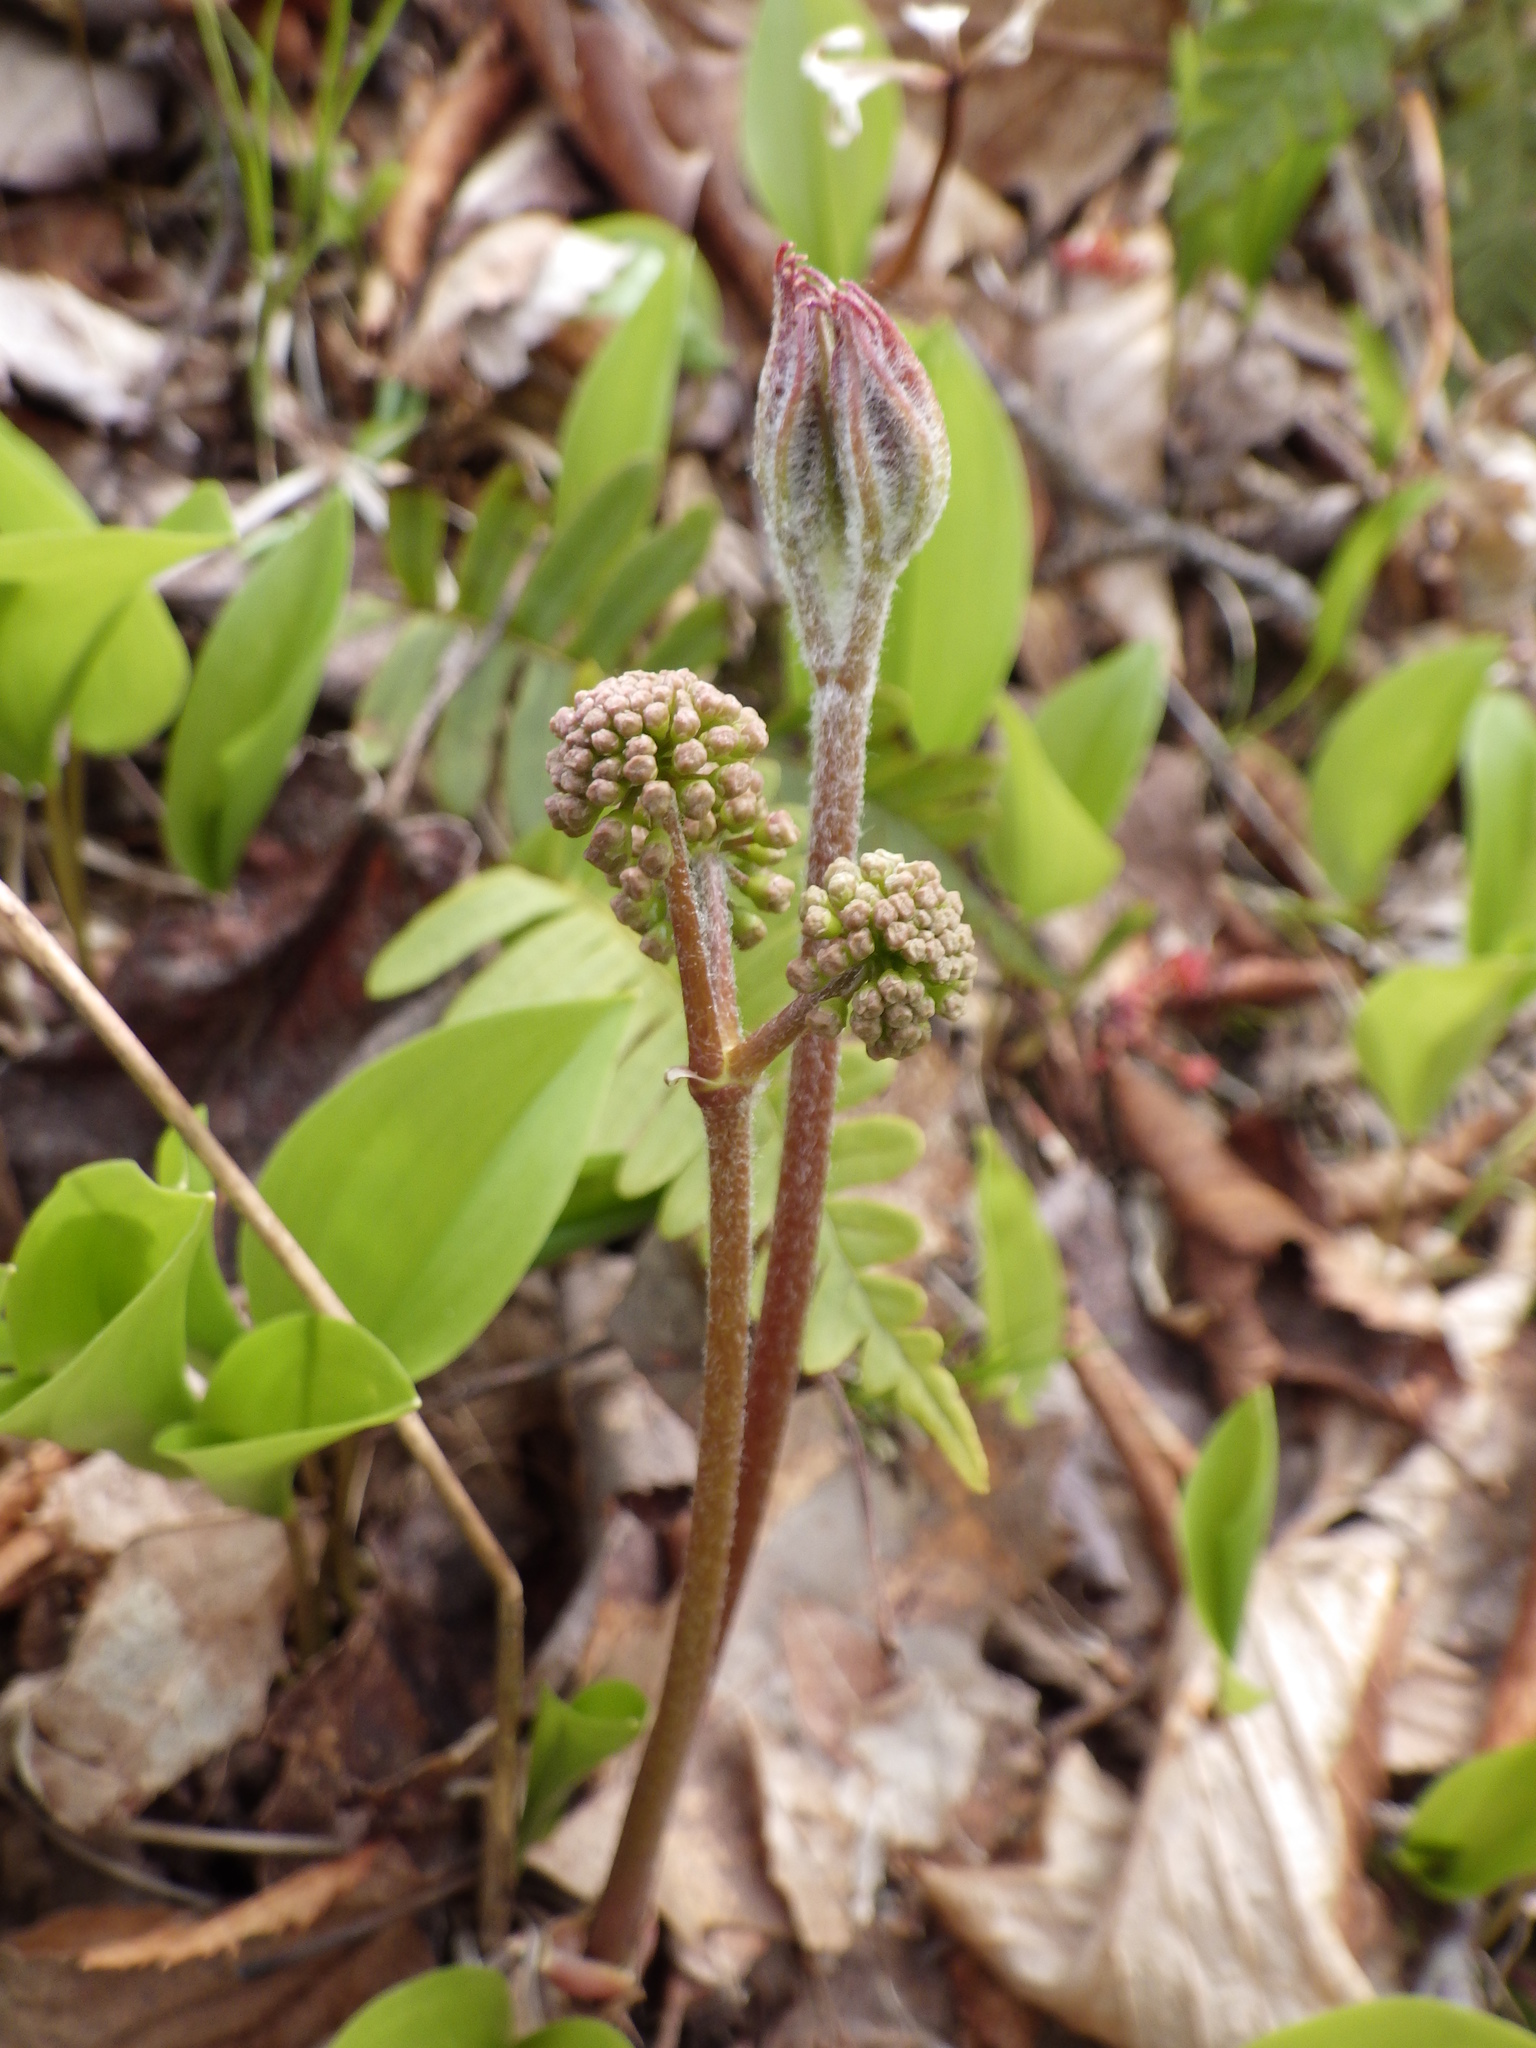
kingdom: Plantae
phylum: Tracheophyta
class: Magnoliopsida
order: Apiales
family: Araliaceae
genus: Aralia
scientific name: Aralia nudicaulis
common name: Wild sarsaparilla
